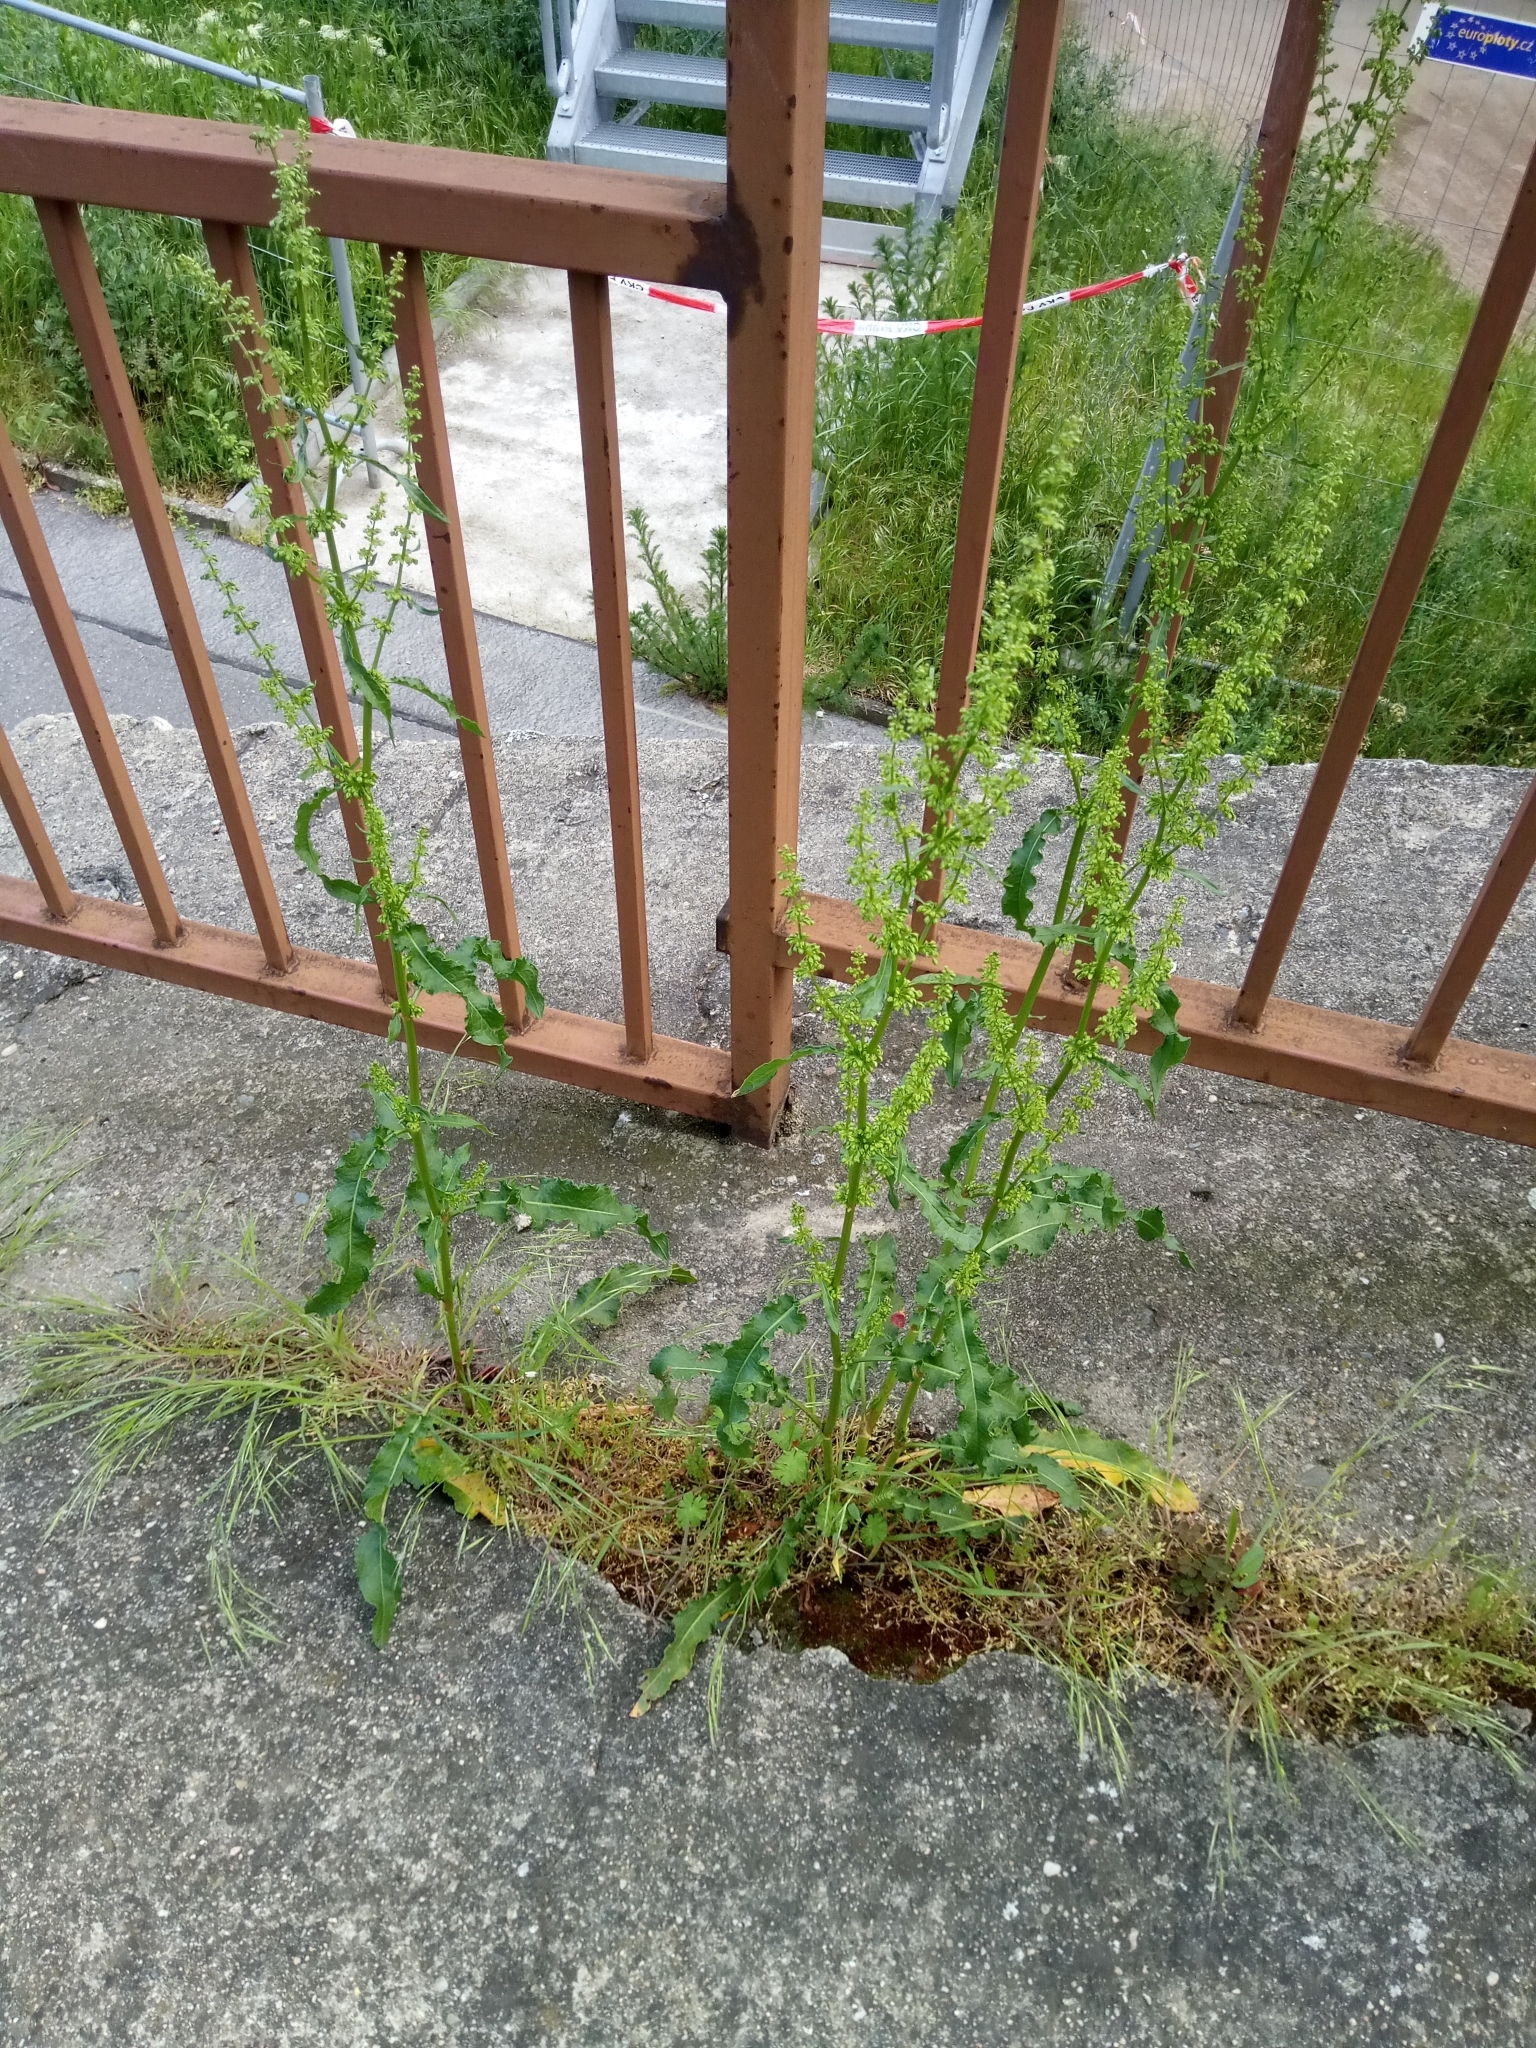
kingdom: Plantae
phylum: Tracheophyta
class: Magnoliopsida
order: Caryophyllales
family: Polygonaceae
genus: Rumex
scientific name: Rumex crispus
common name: Curled dock
